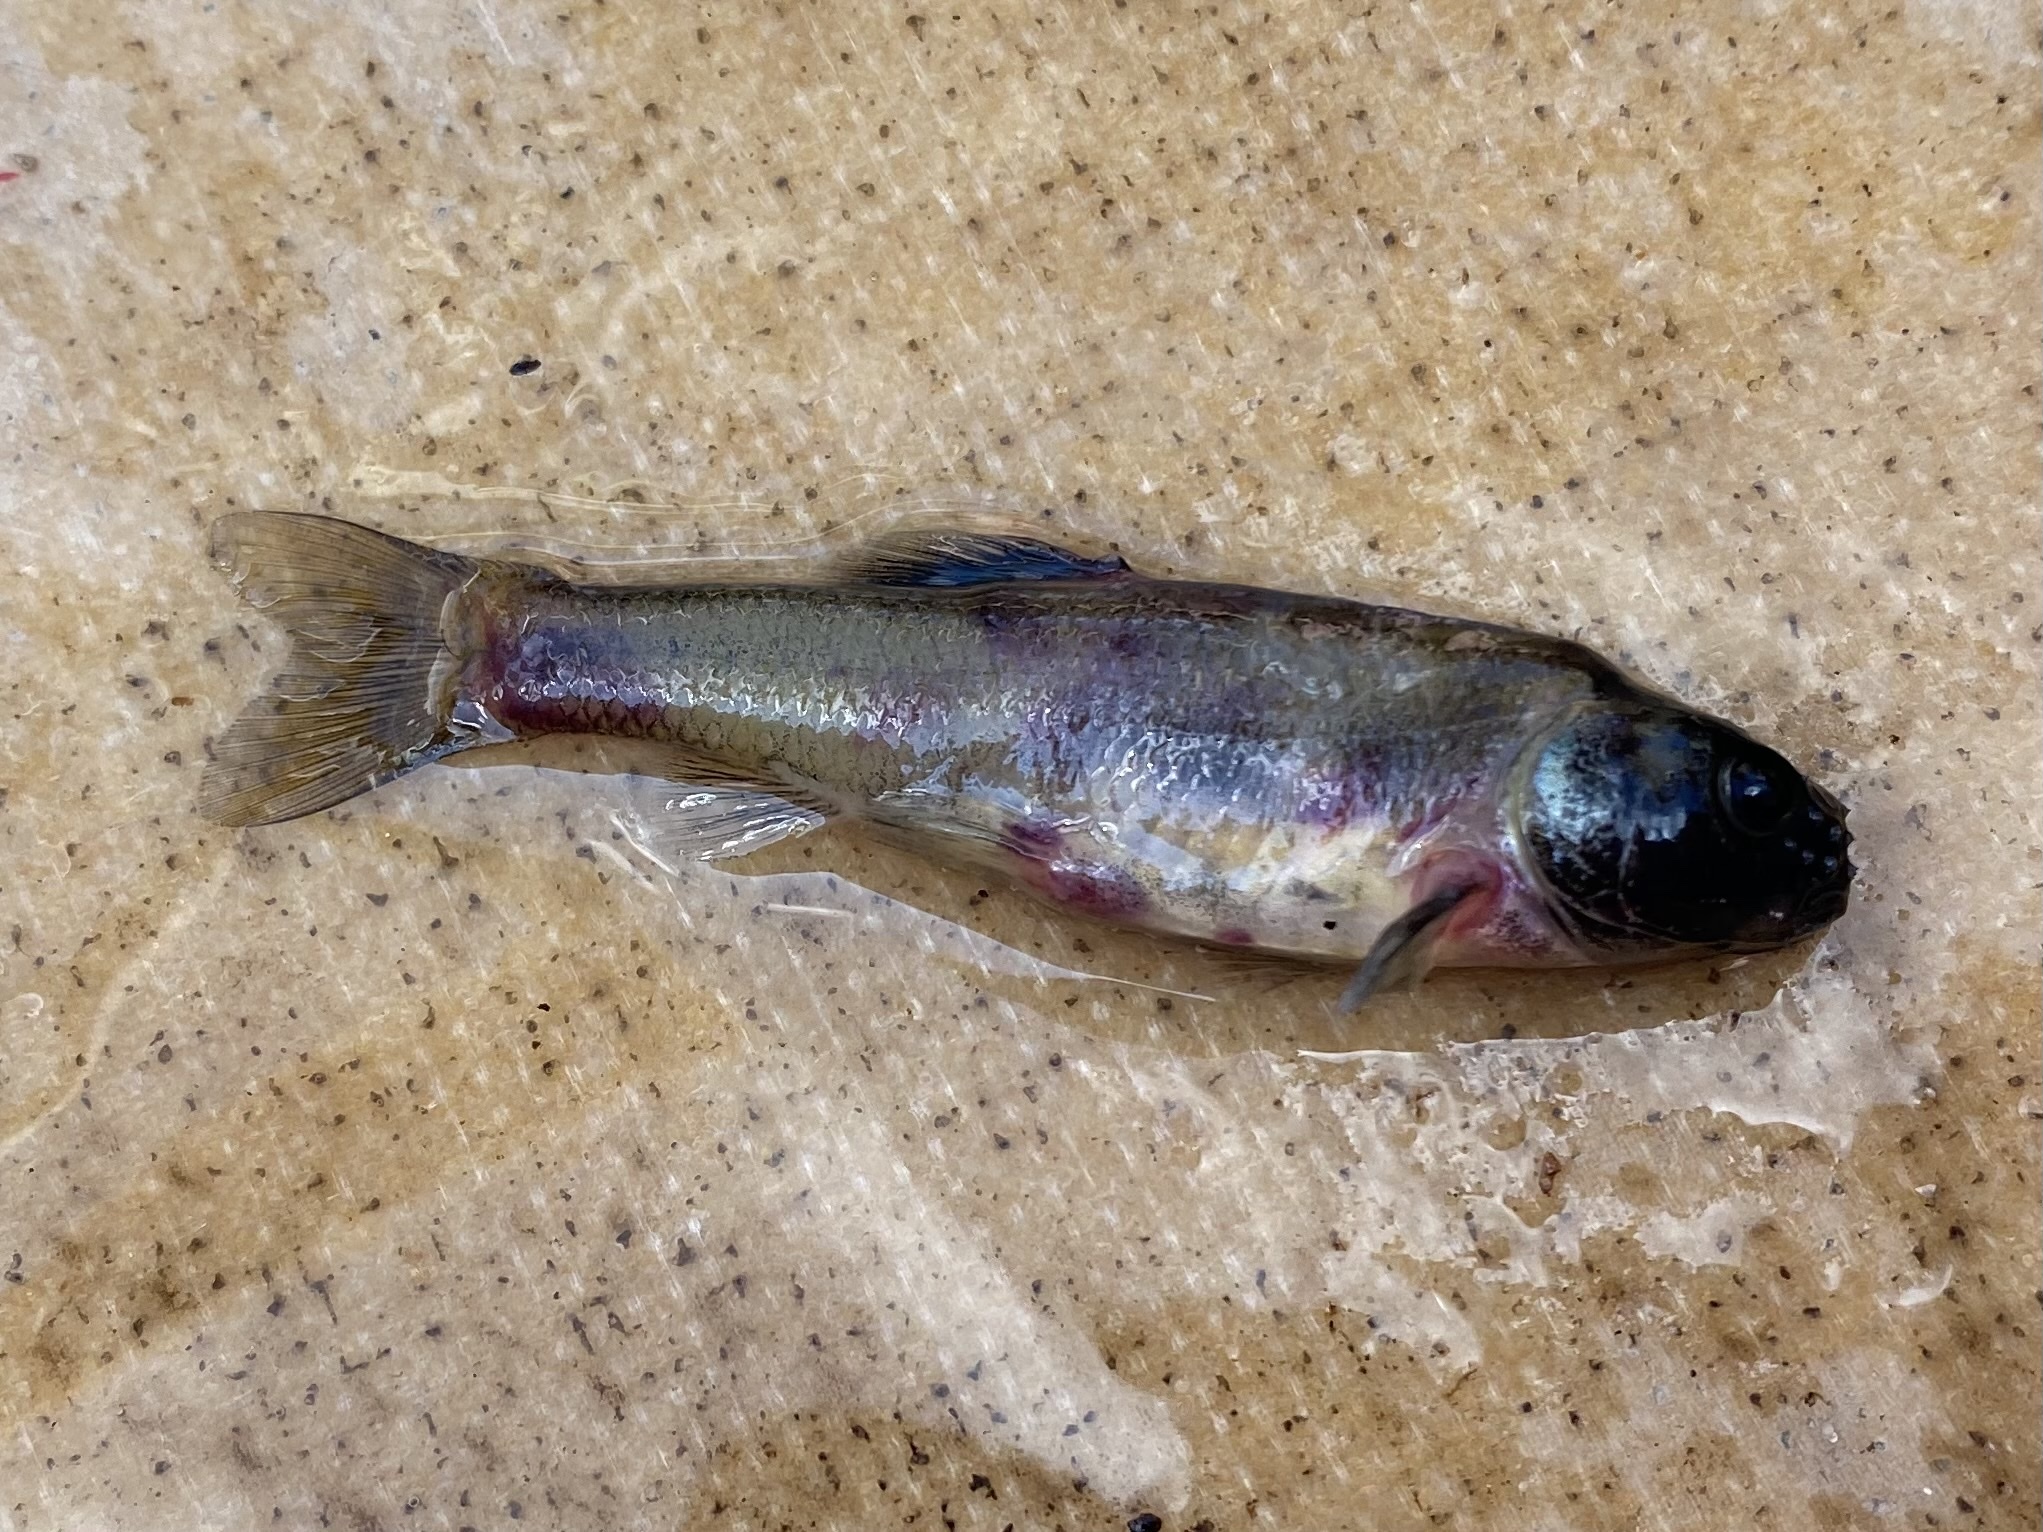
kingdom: Animalia
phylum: Chordata
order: Cypriniformes
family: Cyprinidae
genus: Pimephales
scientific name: Pimephales promelas
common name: Fathead minnow
